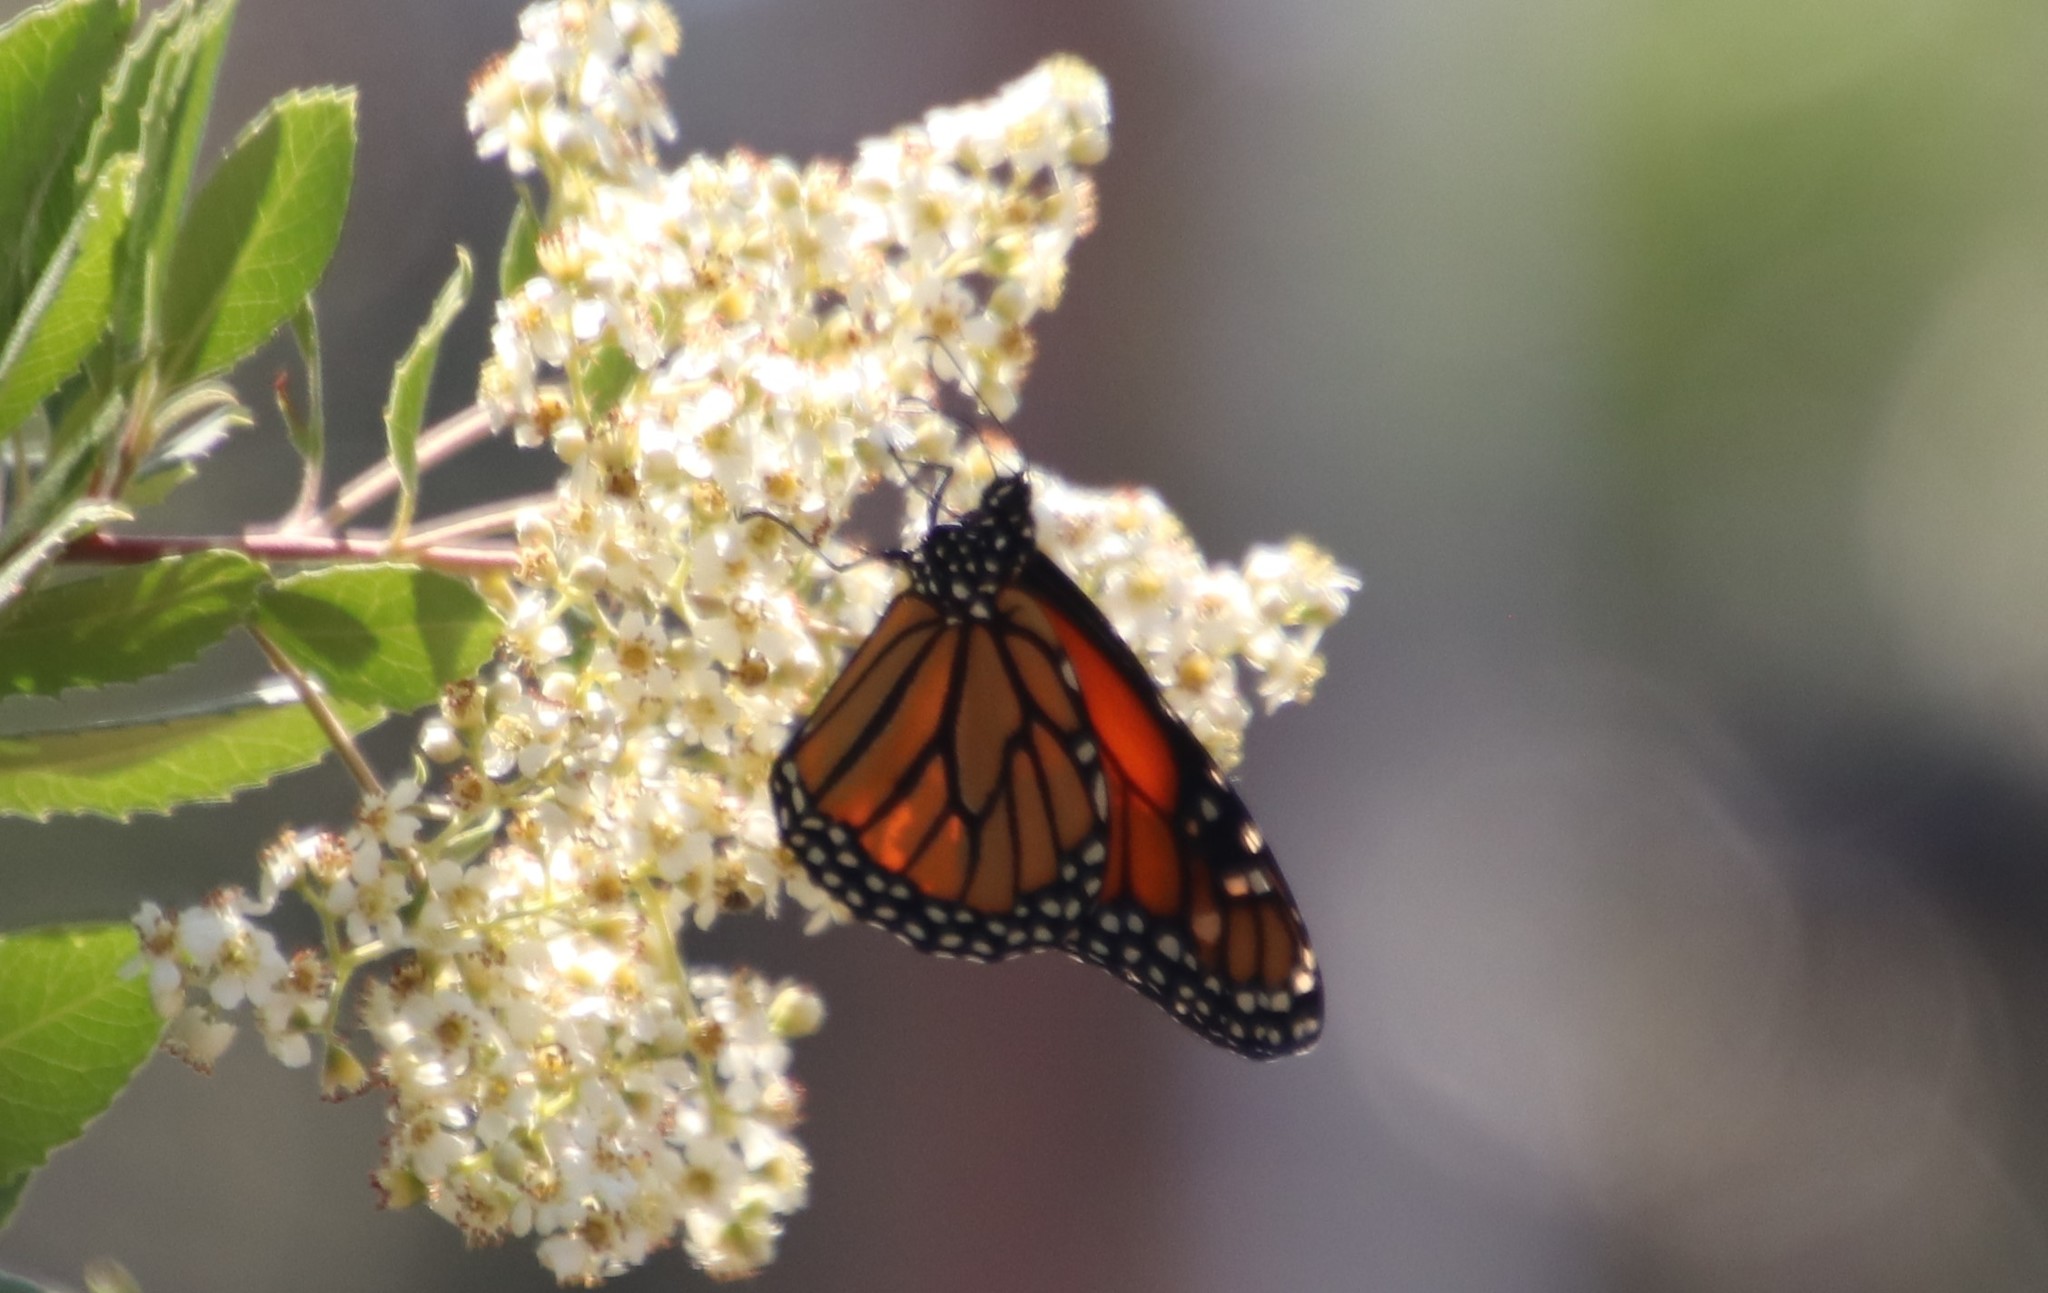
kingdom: Animalia
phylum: Arthropoda
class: Insecta
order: Lepidoptera
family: Nymphalidae
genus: Danaus
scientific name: Danaus plexippus
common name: Monarch
